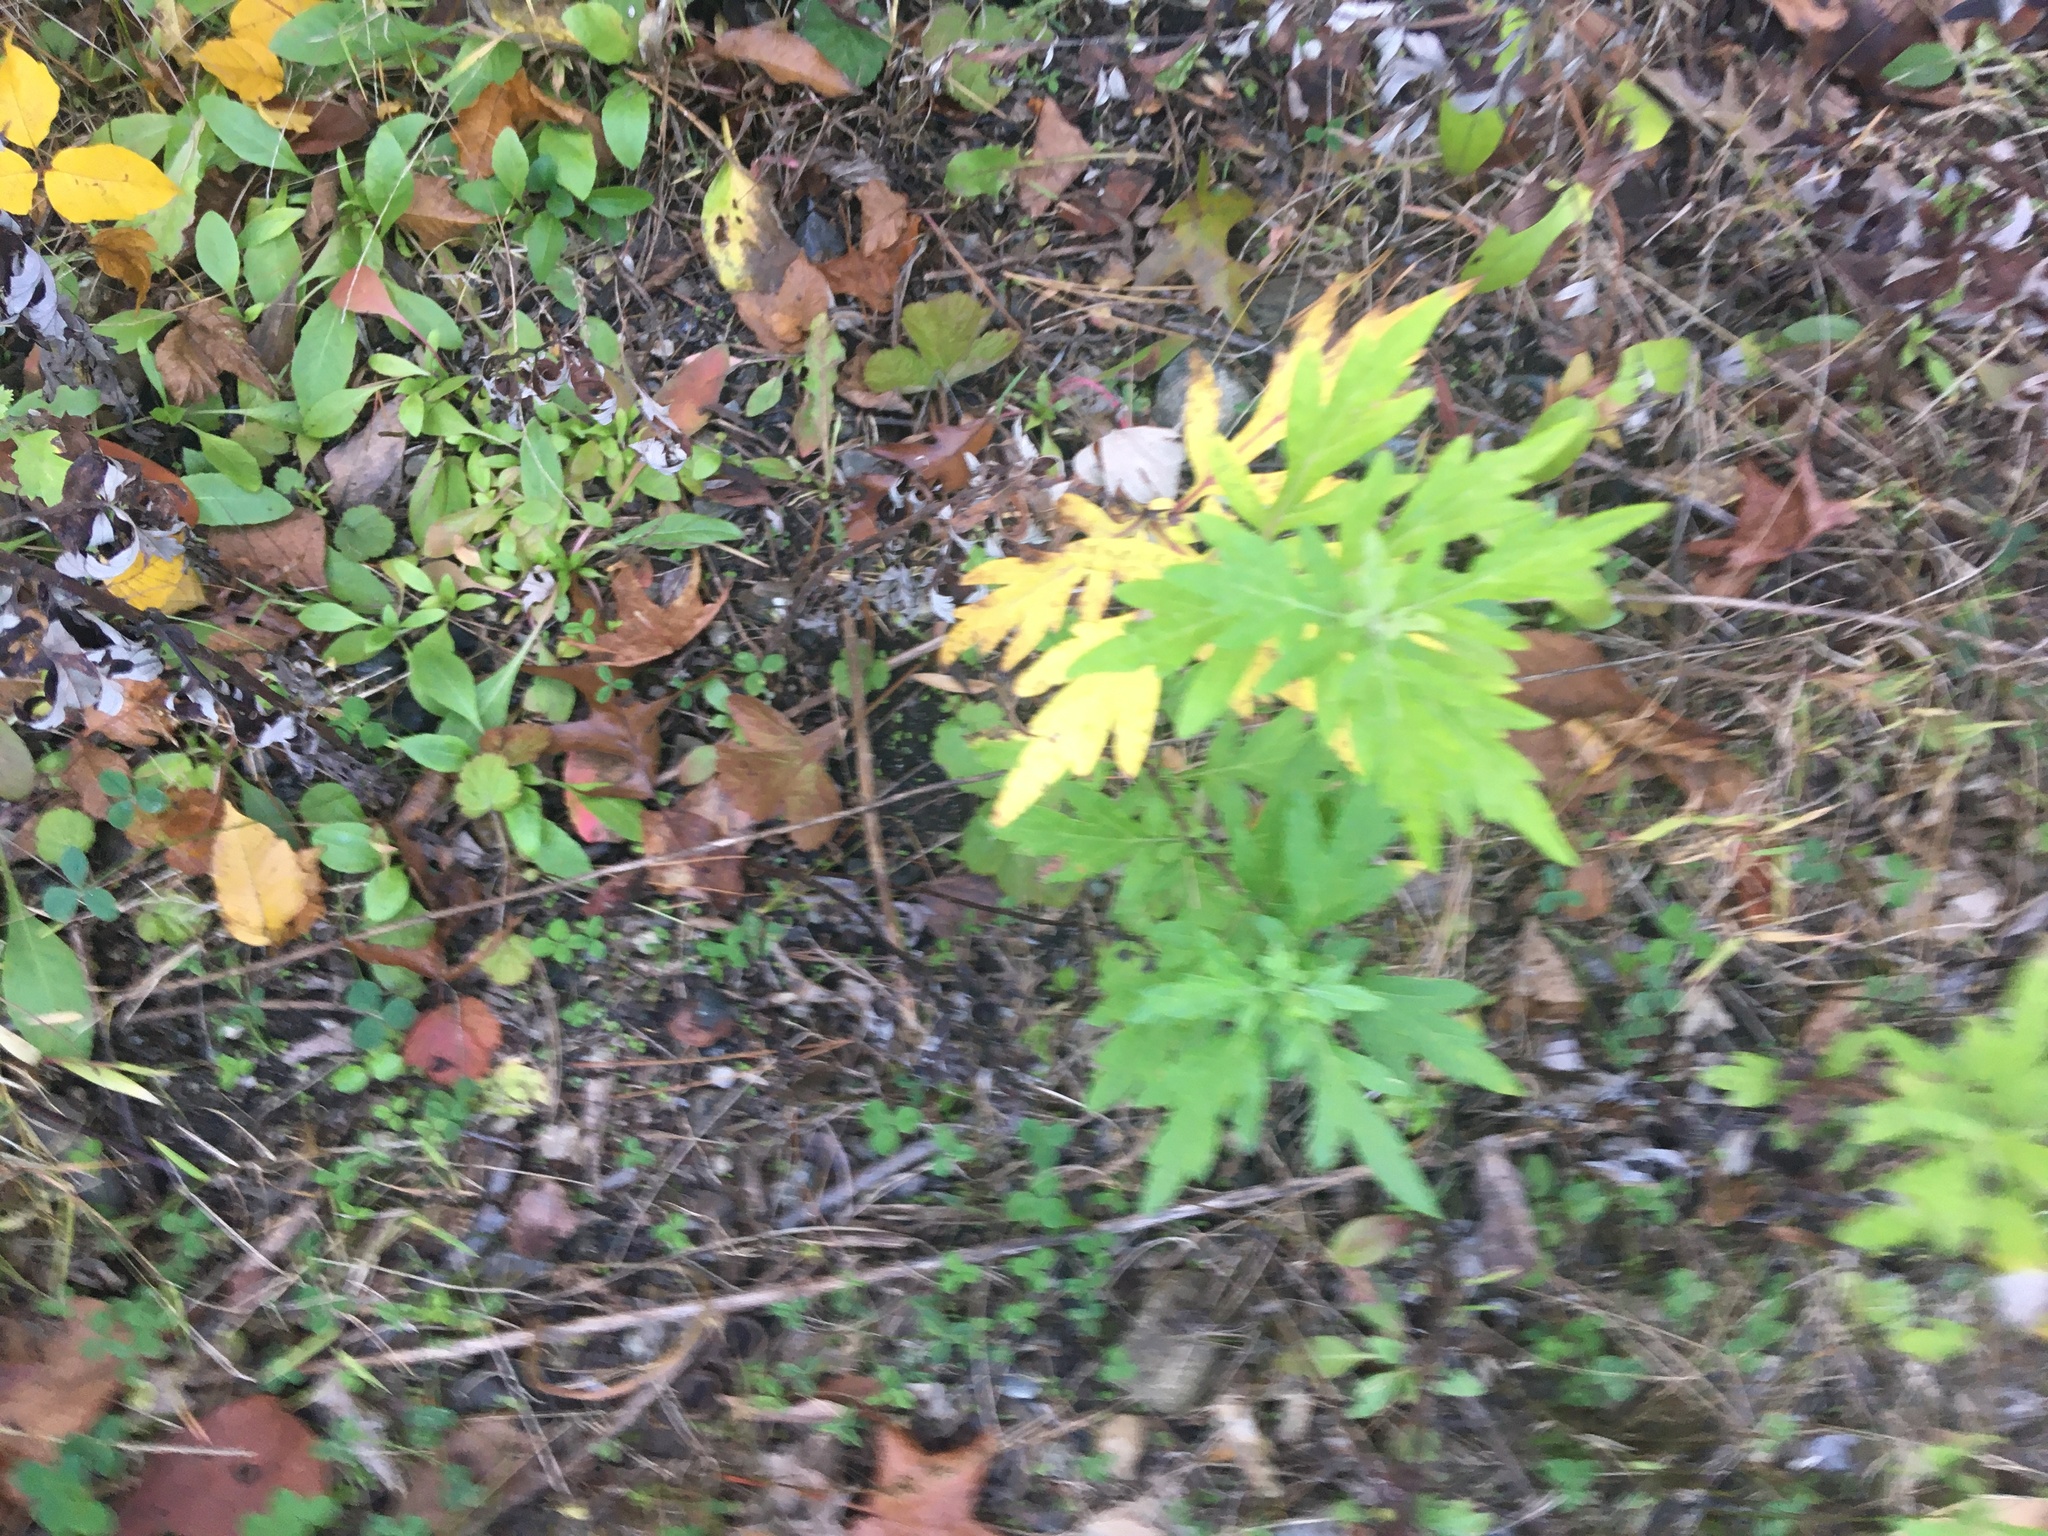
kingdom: Plantae
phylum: Tracheophyta
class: Magnoliopsida
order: Asterales
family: Asteraceae
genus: Artemisia
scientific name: Artemisia vulgaris
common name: Mugwort
